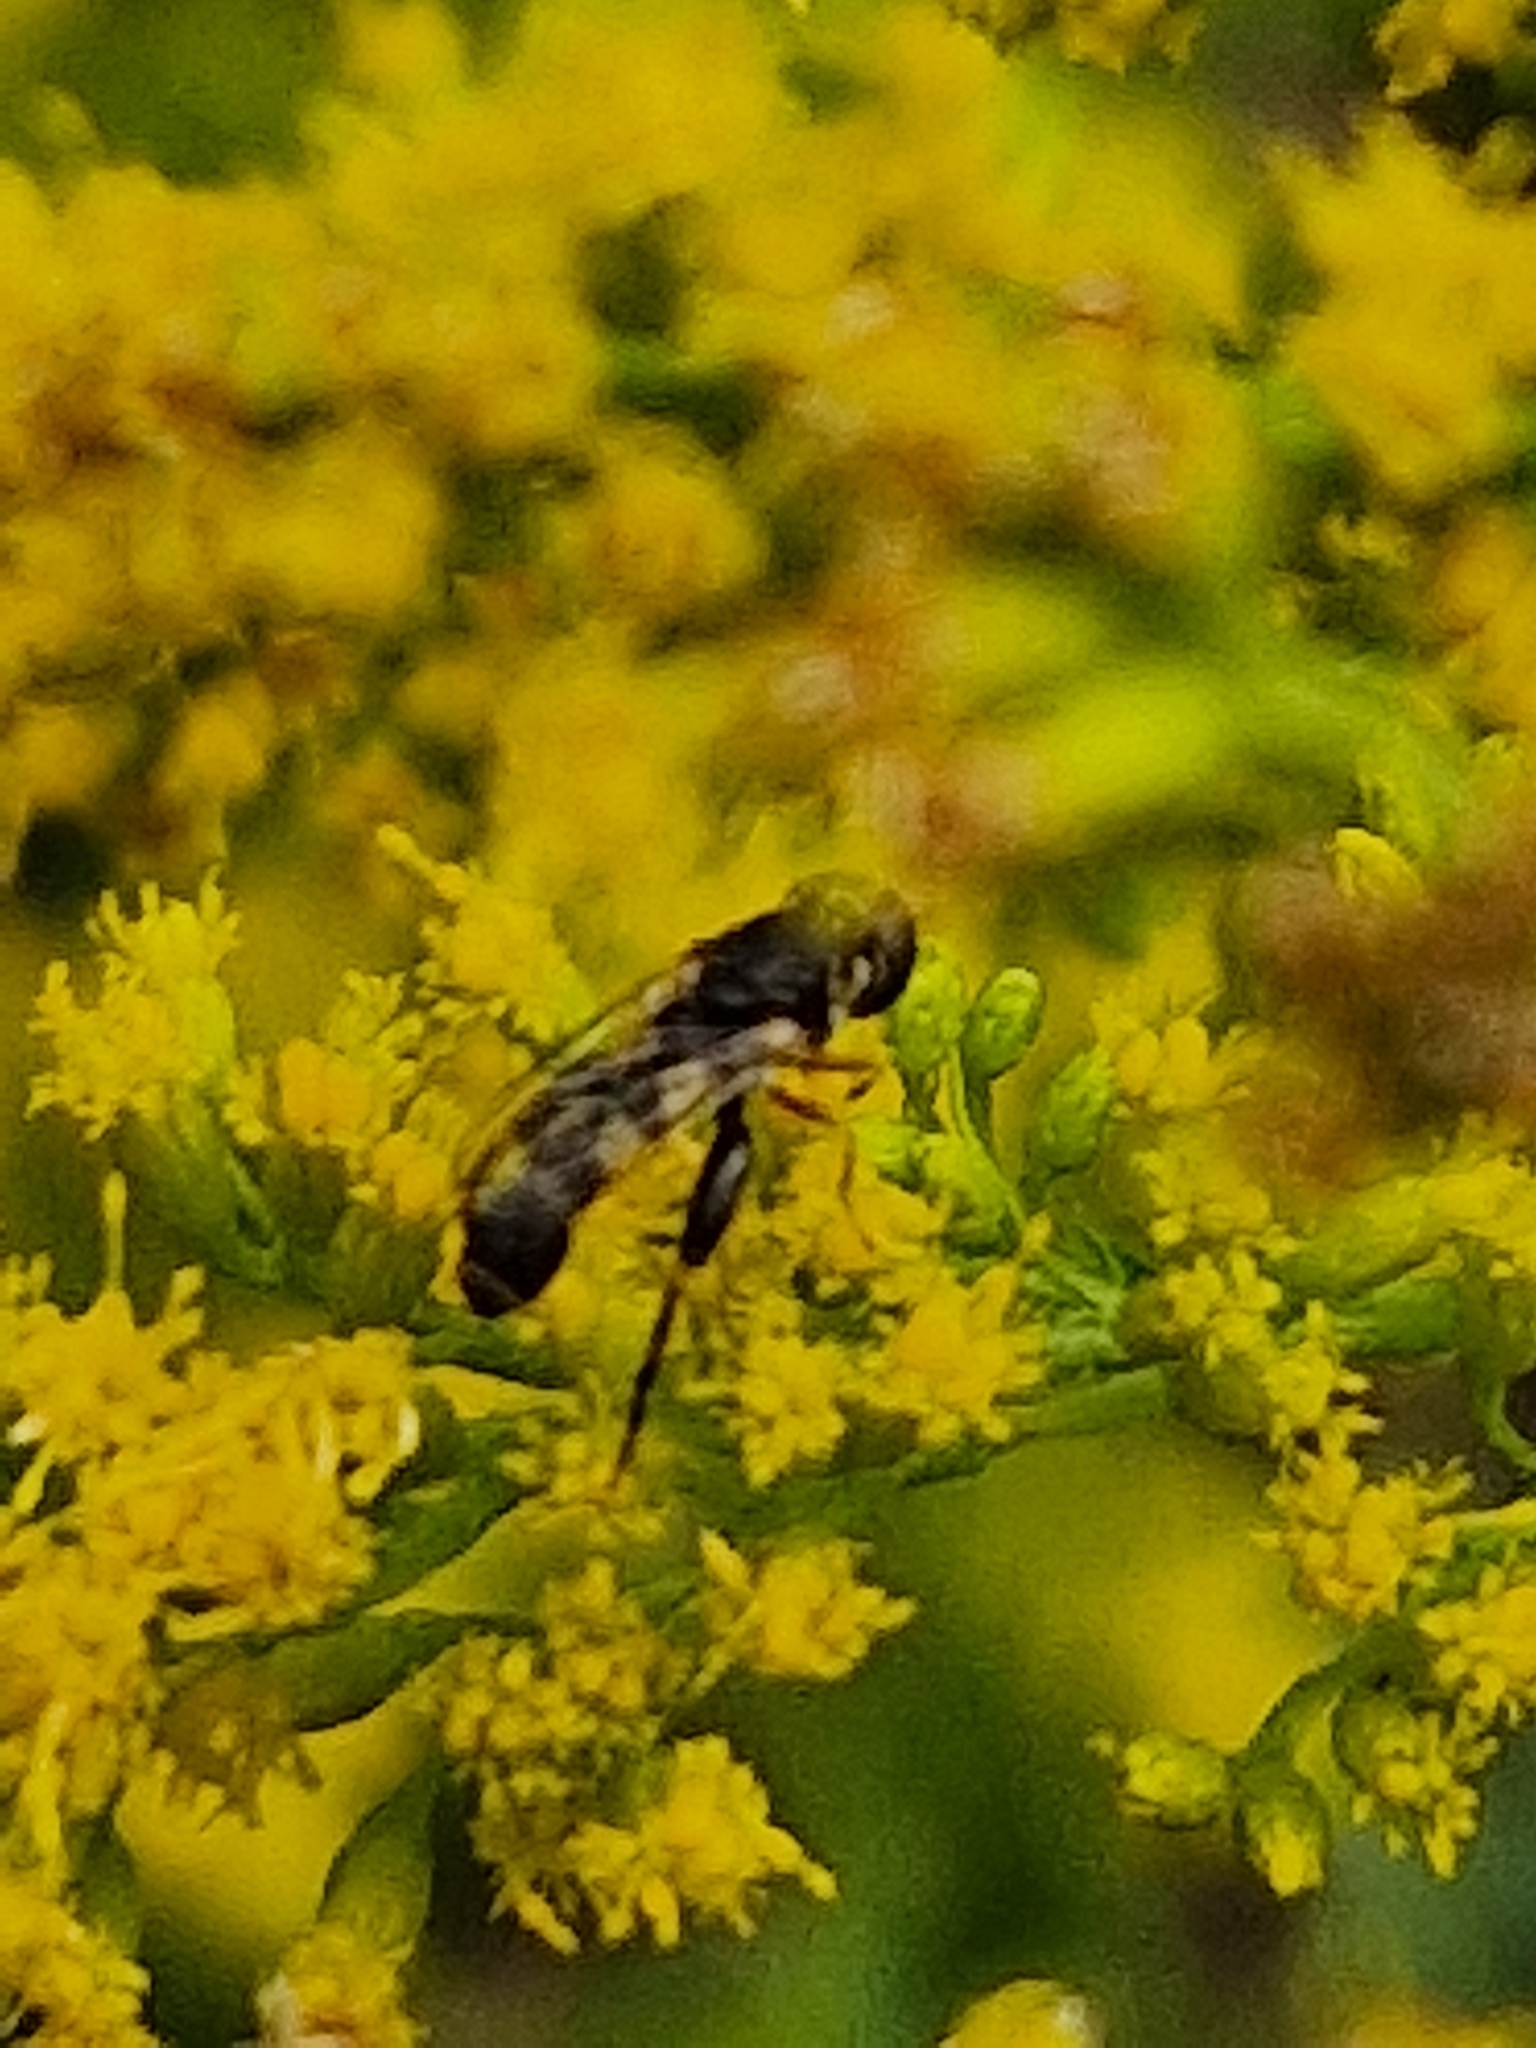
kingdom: Animalia
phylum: Arthropoda
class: Insecta
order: Diptera
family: Syrphidae
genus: Syritta
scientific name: Syritta pipiens
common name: Hover fly
